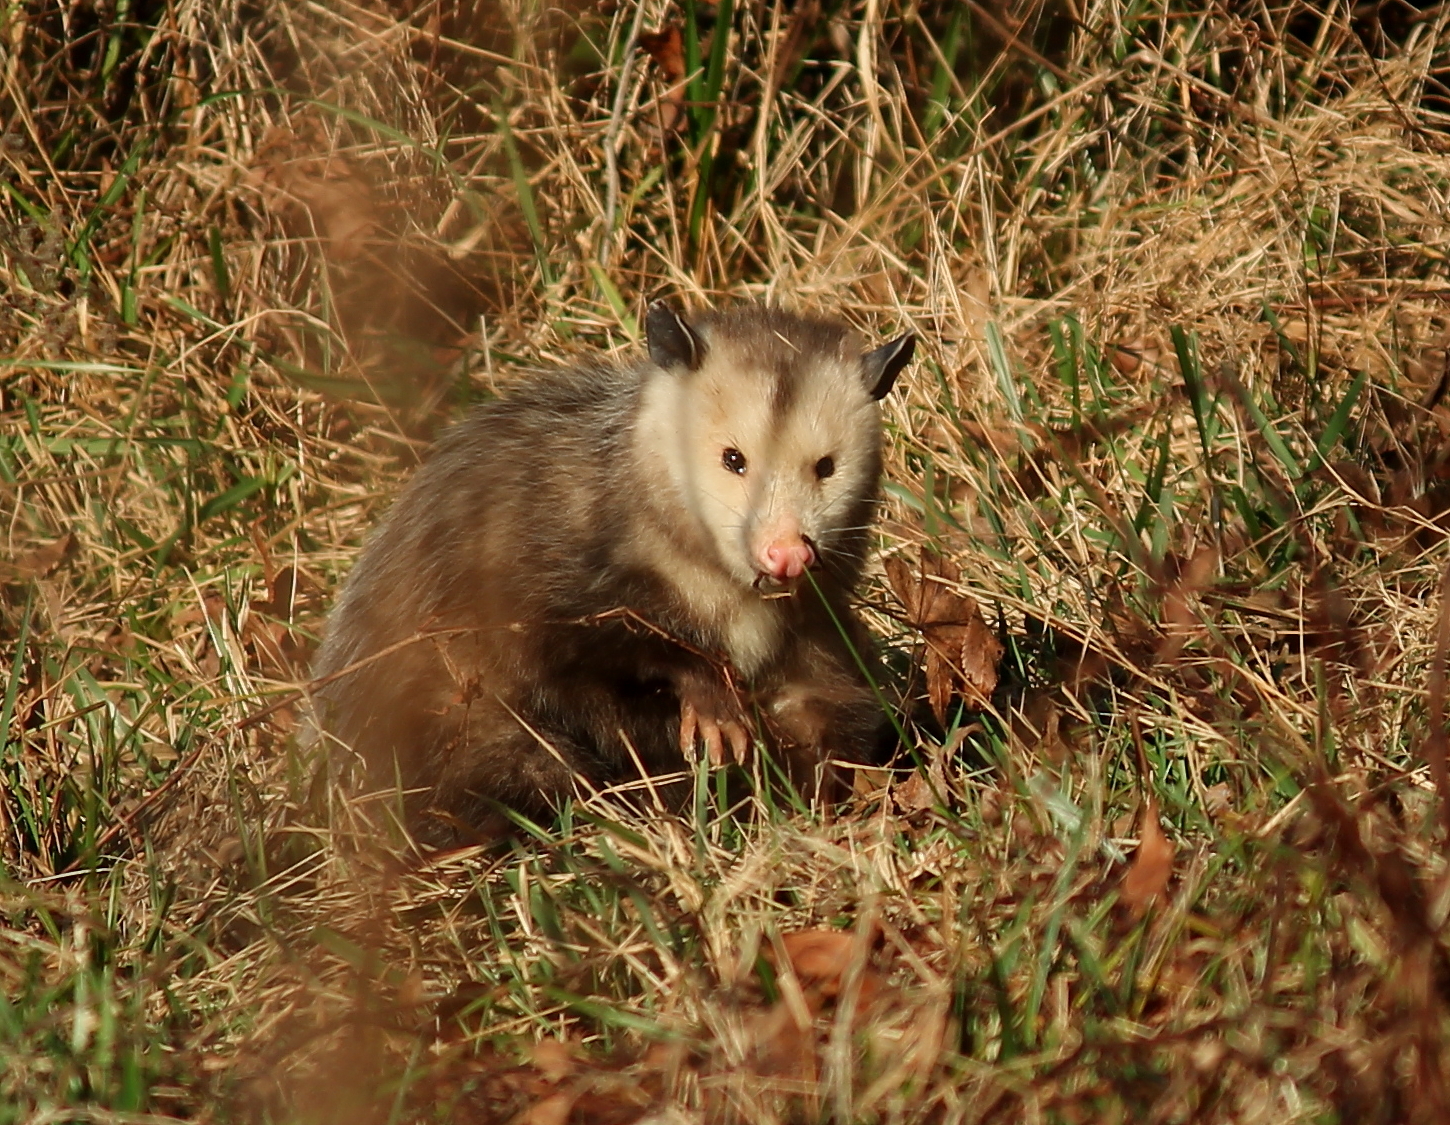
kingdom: Animalia
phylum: Chordata
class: Mammalia
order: Didelphimorphia
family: Didelphidae
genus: Didelphis
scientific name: Didelphis virginiana
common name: Virginia opossum
